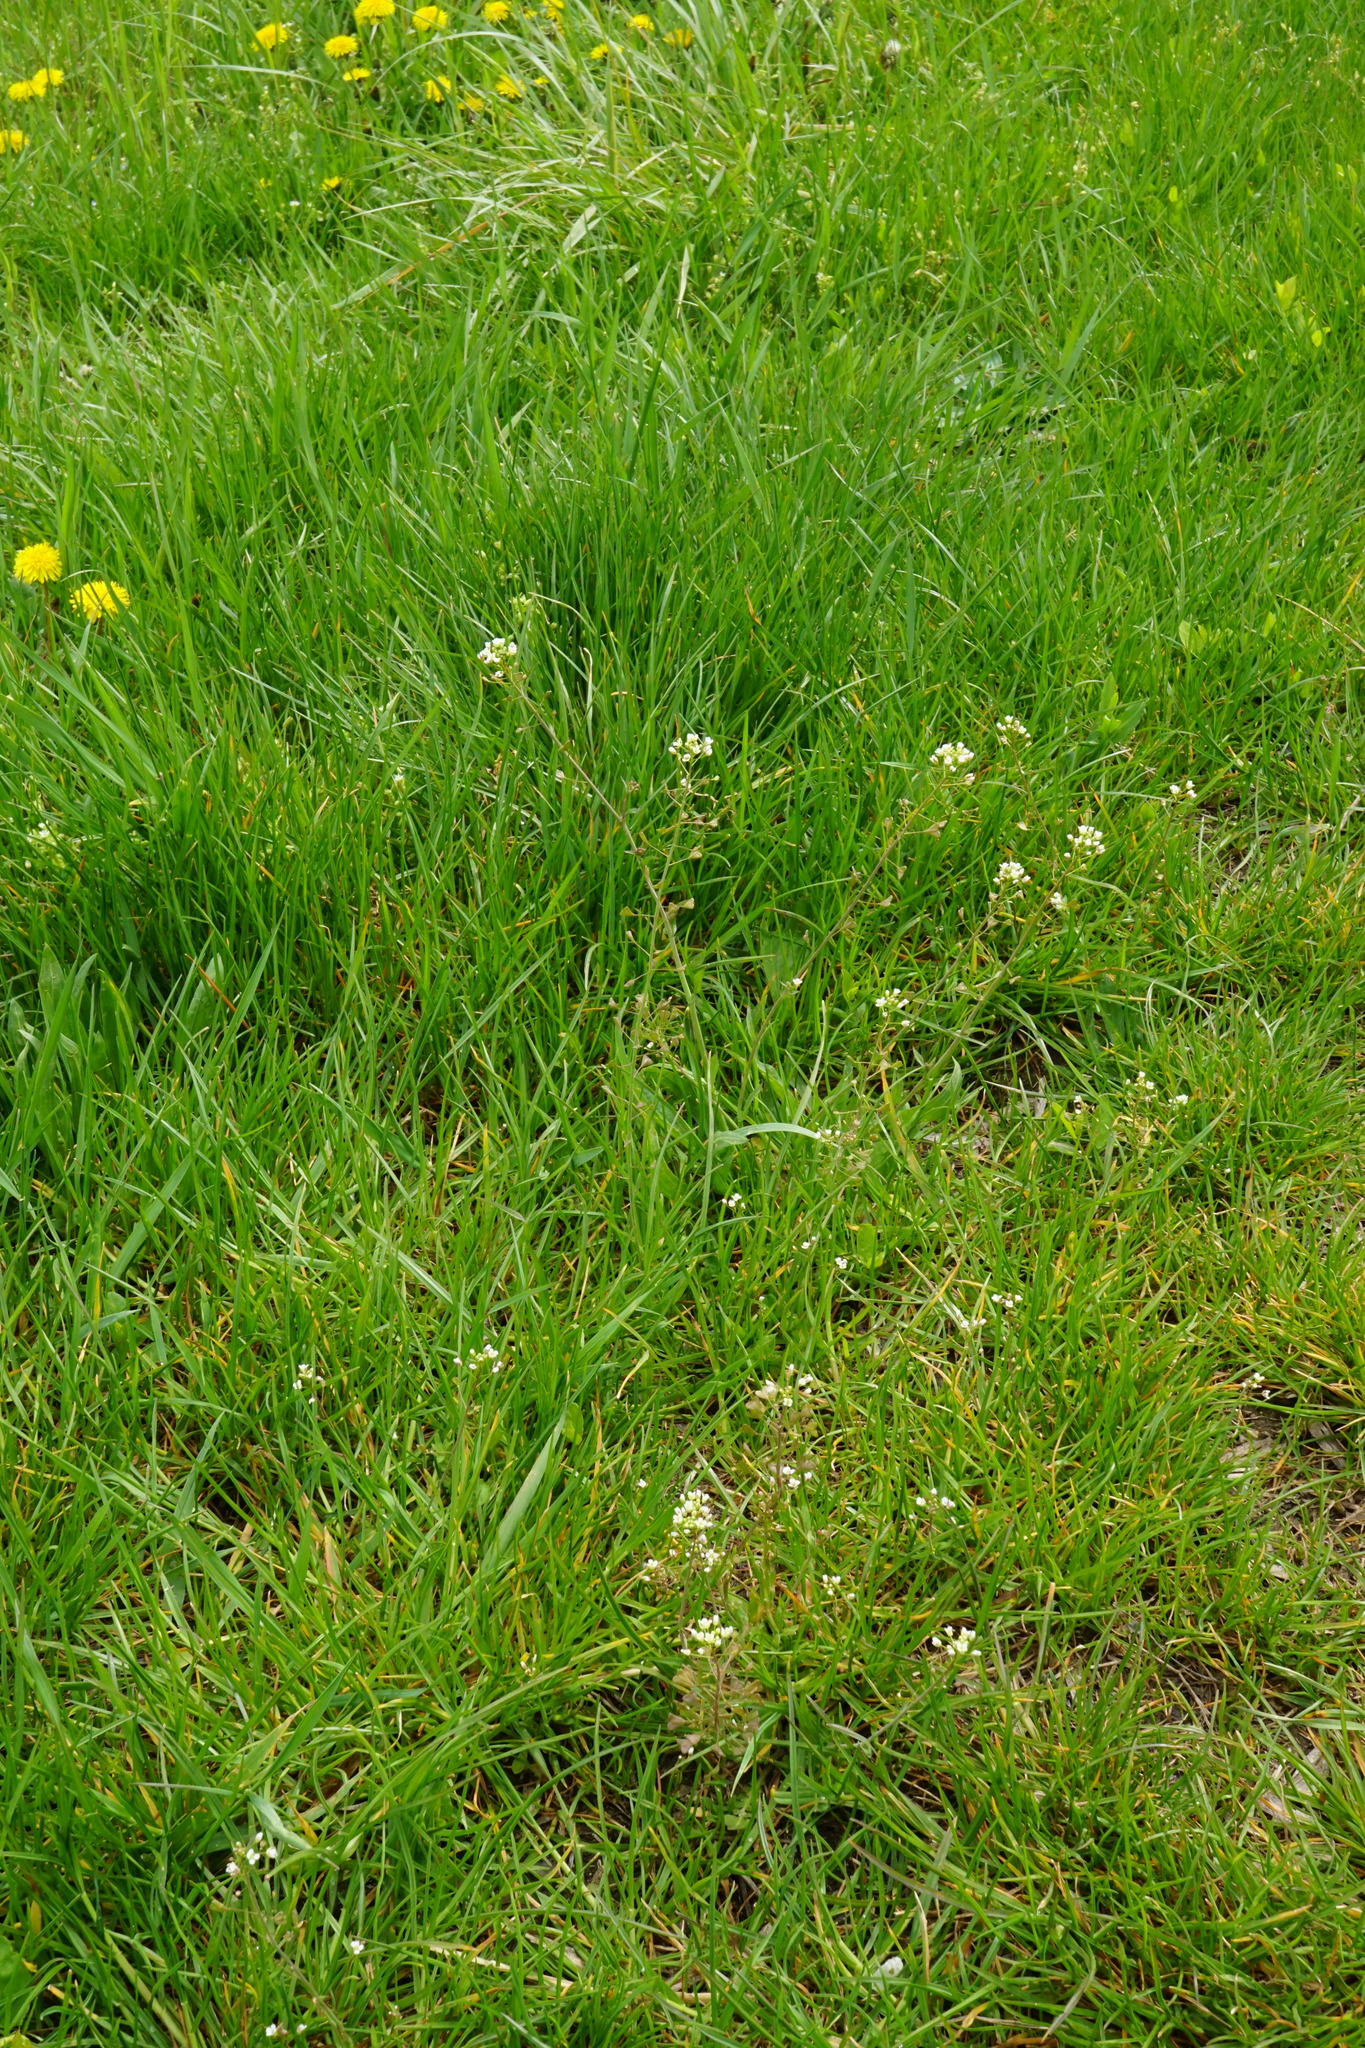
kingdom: Plantae
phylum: Tracheophyta
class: Magnoliopsida
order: Brassicales
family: Brassicaceae
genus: Capsella
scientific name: Capsella bursa-pastoris
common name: Shepherd's purse
